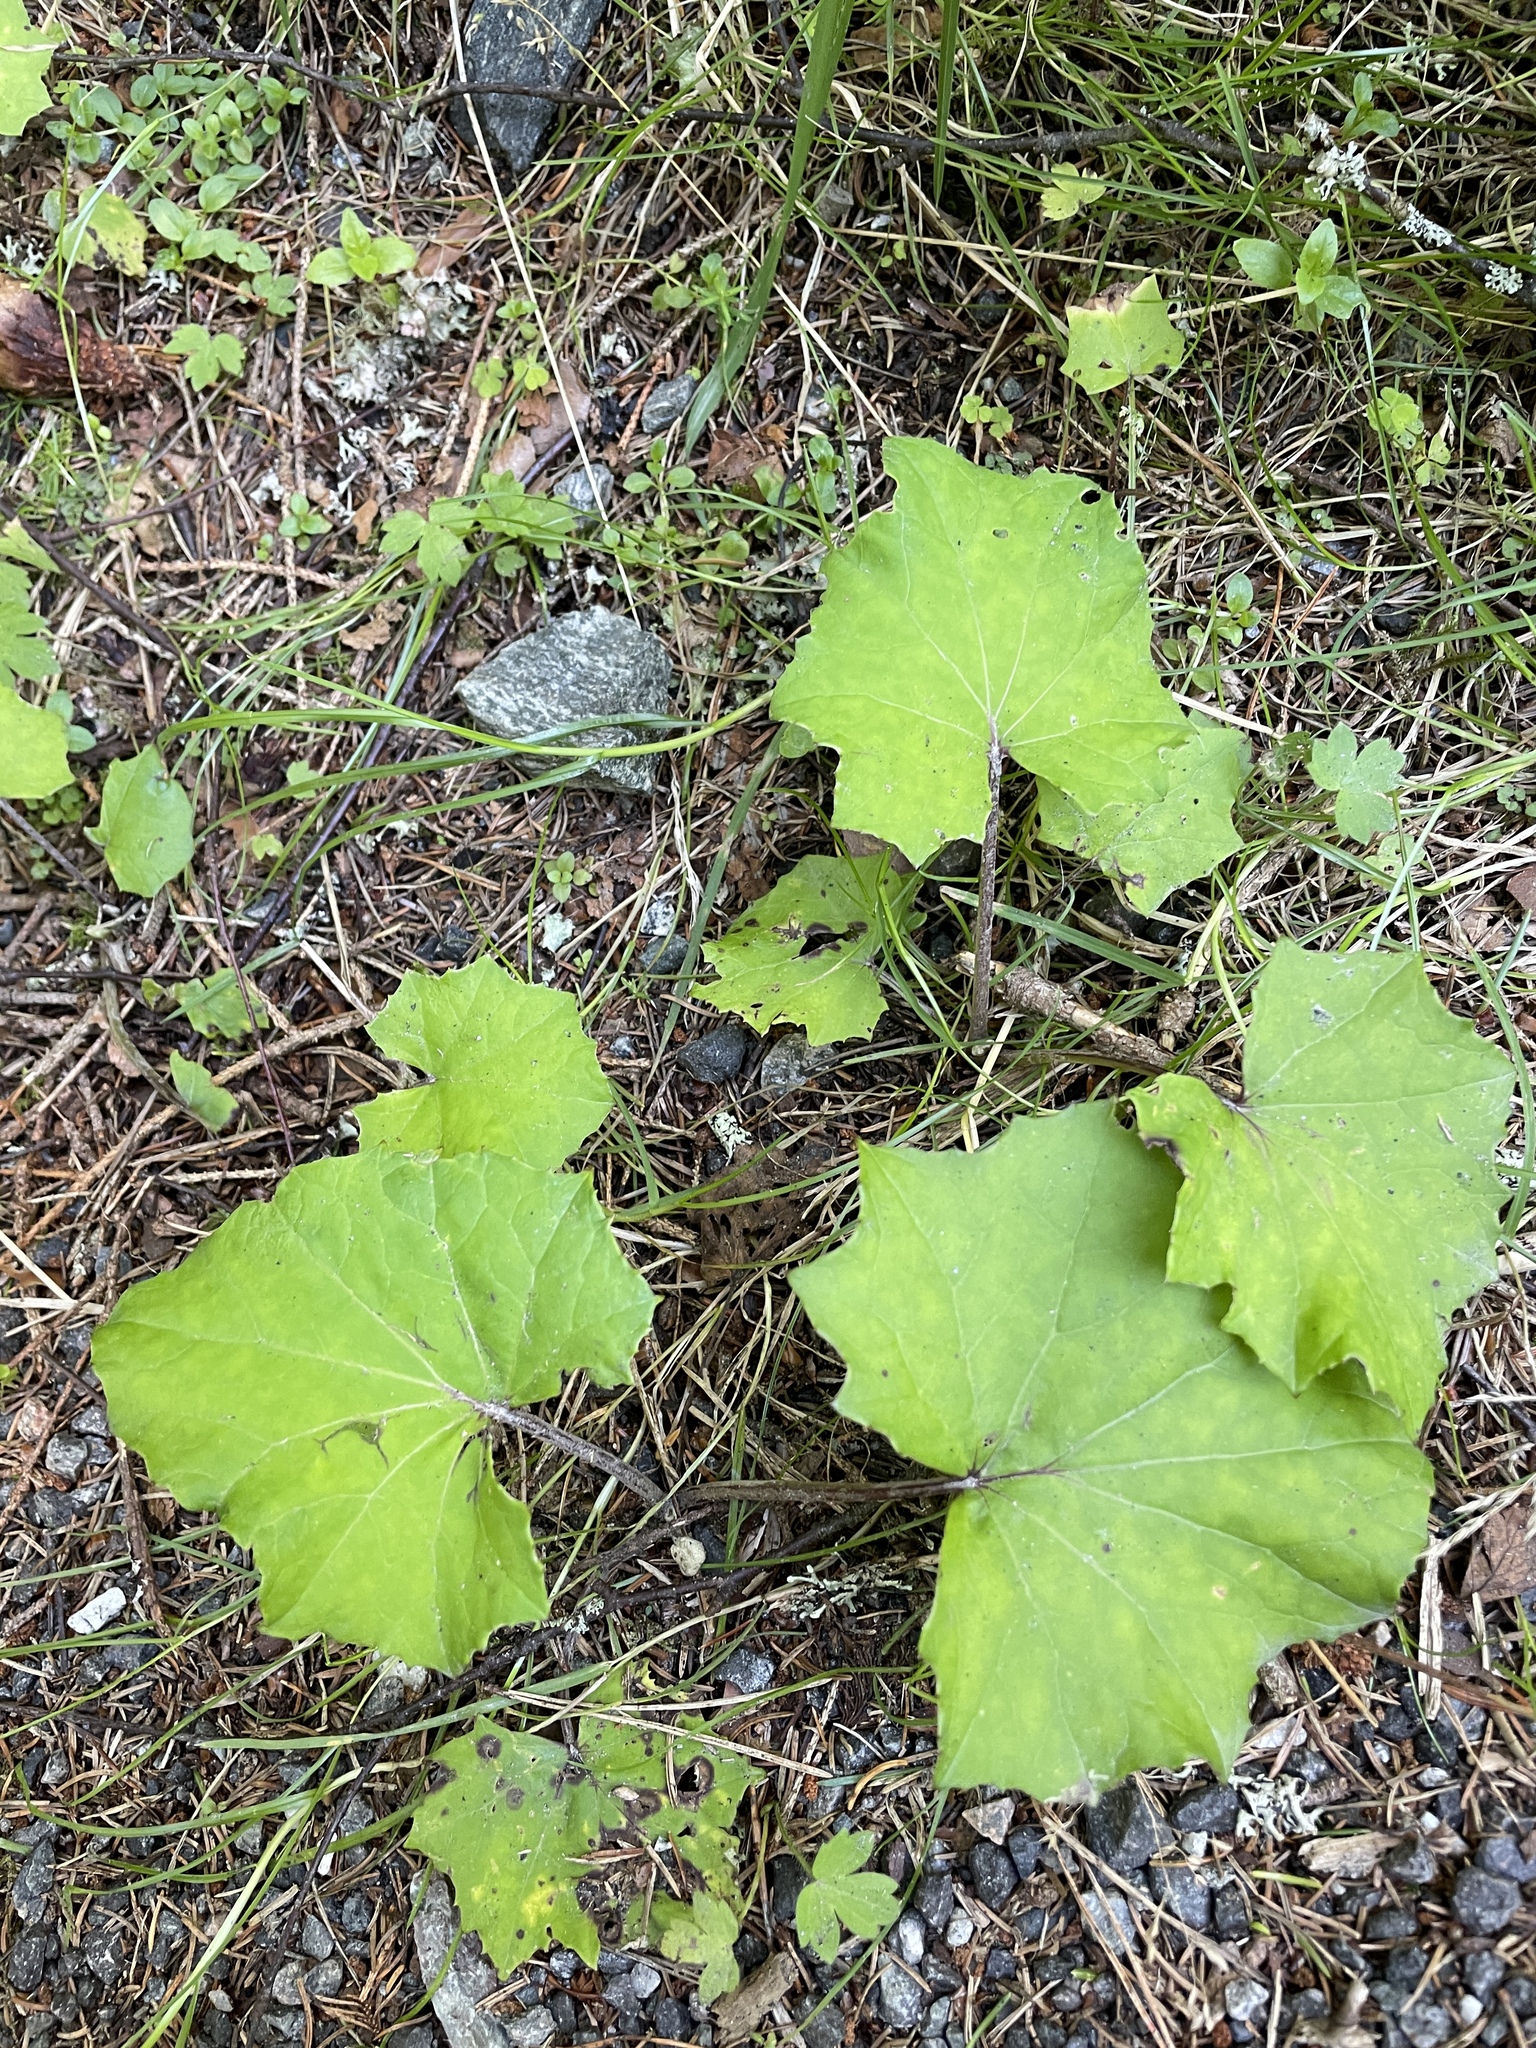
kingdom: Plantae
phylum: Tracheophyta
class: Magnoliopsida
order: Asterales
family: Asteraceae
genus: Tussilago
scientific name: Tussilago farfara
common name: Coltsfoot
